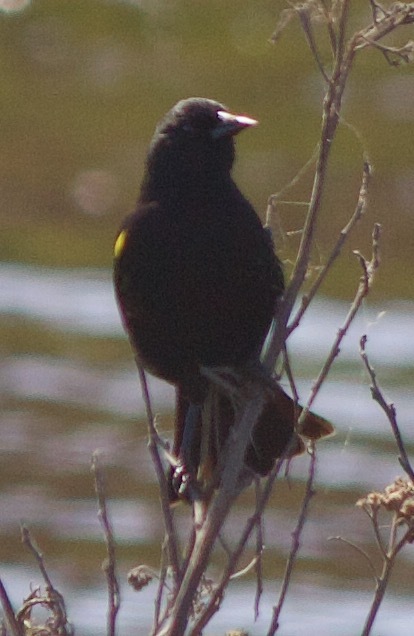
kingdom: Animalia
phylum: Chordata
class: Aves
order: Passeriformes
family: Icteridae
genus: Agelasticus
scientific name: Agelasticus thilius
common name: Yellow-winged blackbird
